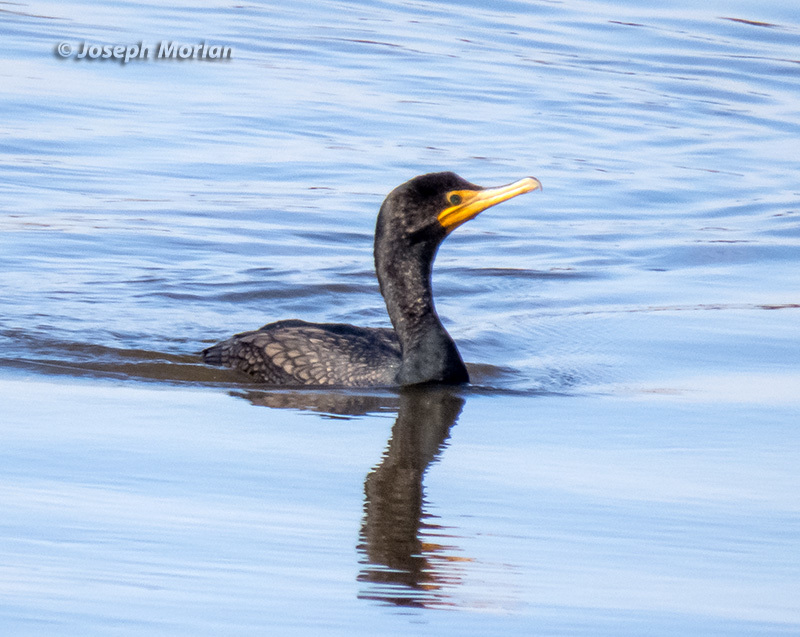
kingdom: Animalia
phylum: Chordata
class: Aves
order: Suliformes
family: Phalacrocoracidae
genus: Phalacrocorax
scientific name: Phalacrocorax auritus
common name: Double-crested cormorant
